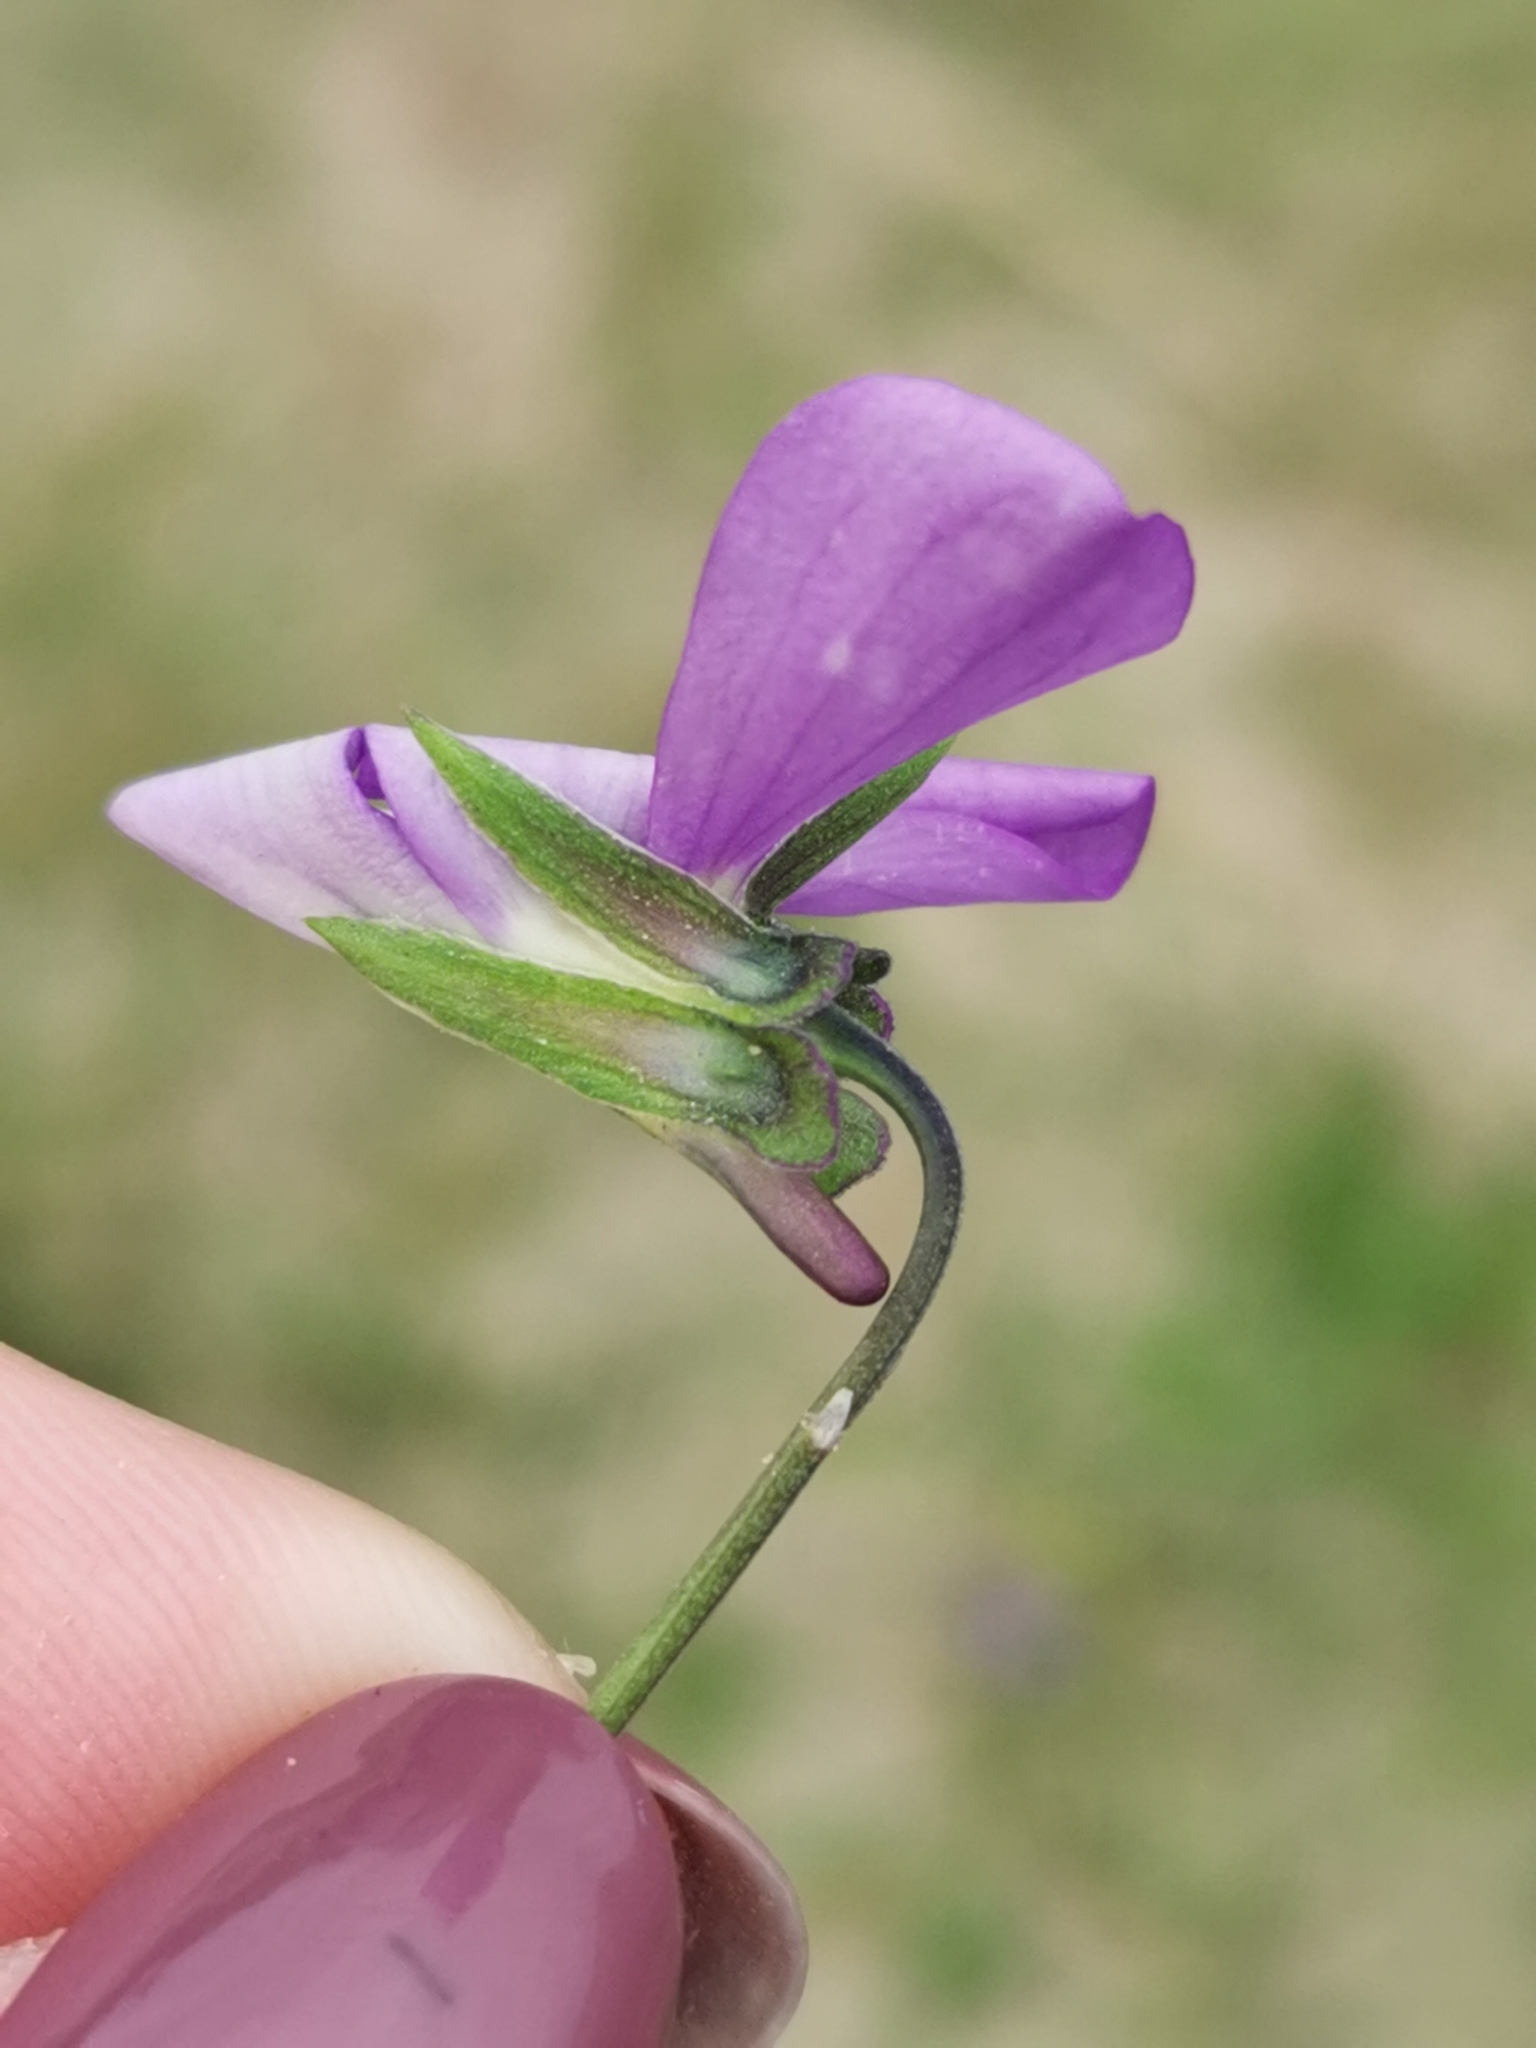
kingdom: Plantae
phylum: Tracheophyta
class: Magnoliopsida
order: Malpighiales
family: Violaceae
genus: Viola
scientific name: Viola tricolor
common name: Pansy
